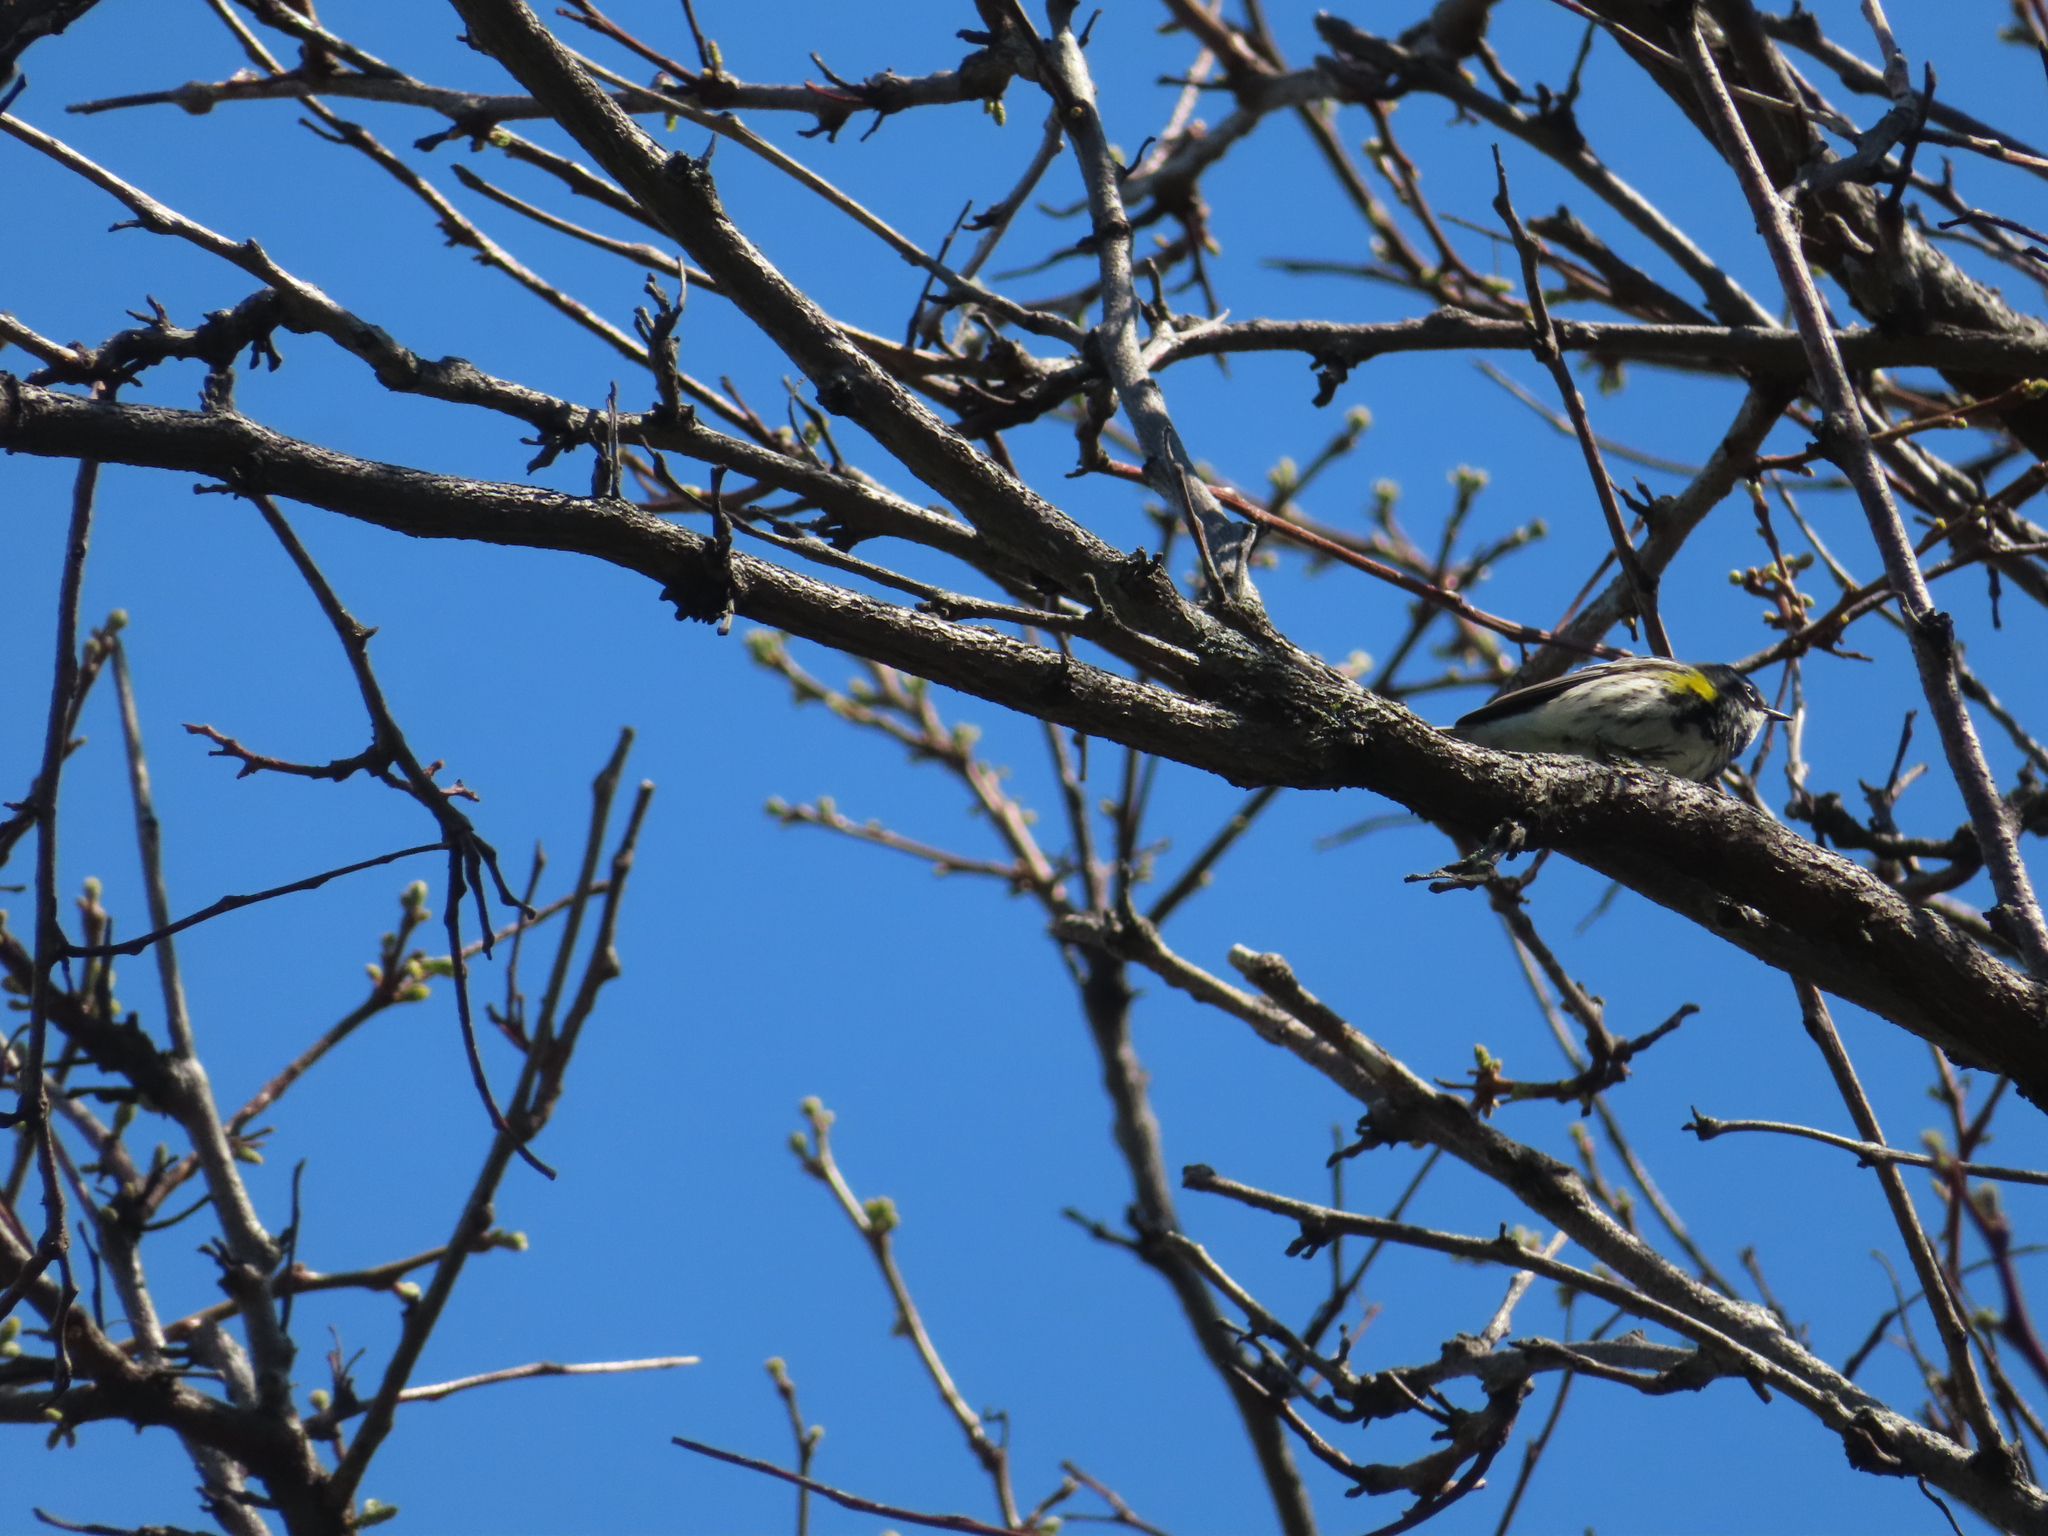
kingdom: Animalia
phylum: Chordata
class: Aves
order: Passeriformes
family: Parulidae
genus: Setophaga
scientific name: Setophaga coronata
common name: Myrtle warbler
